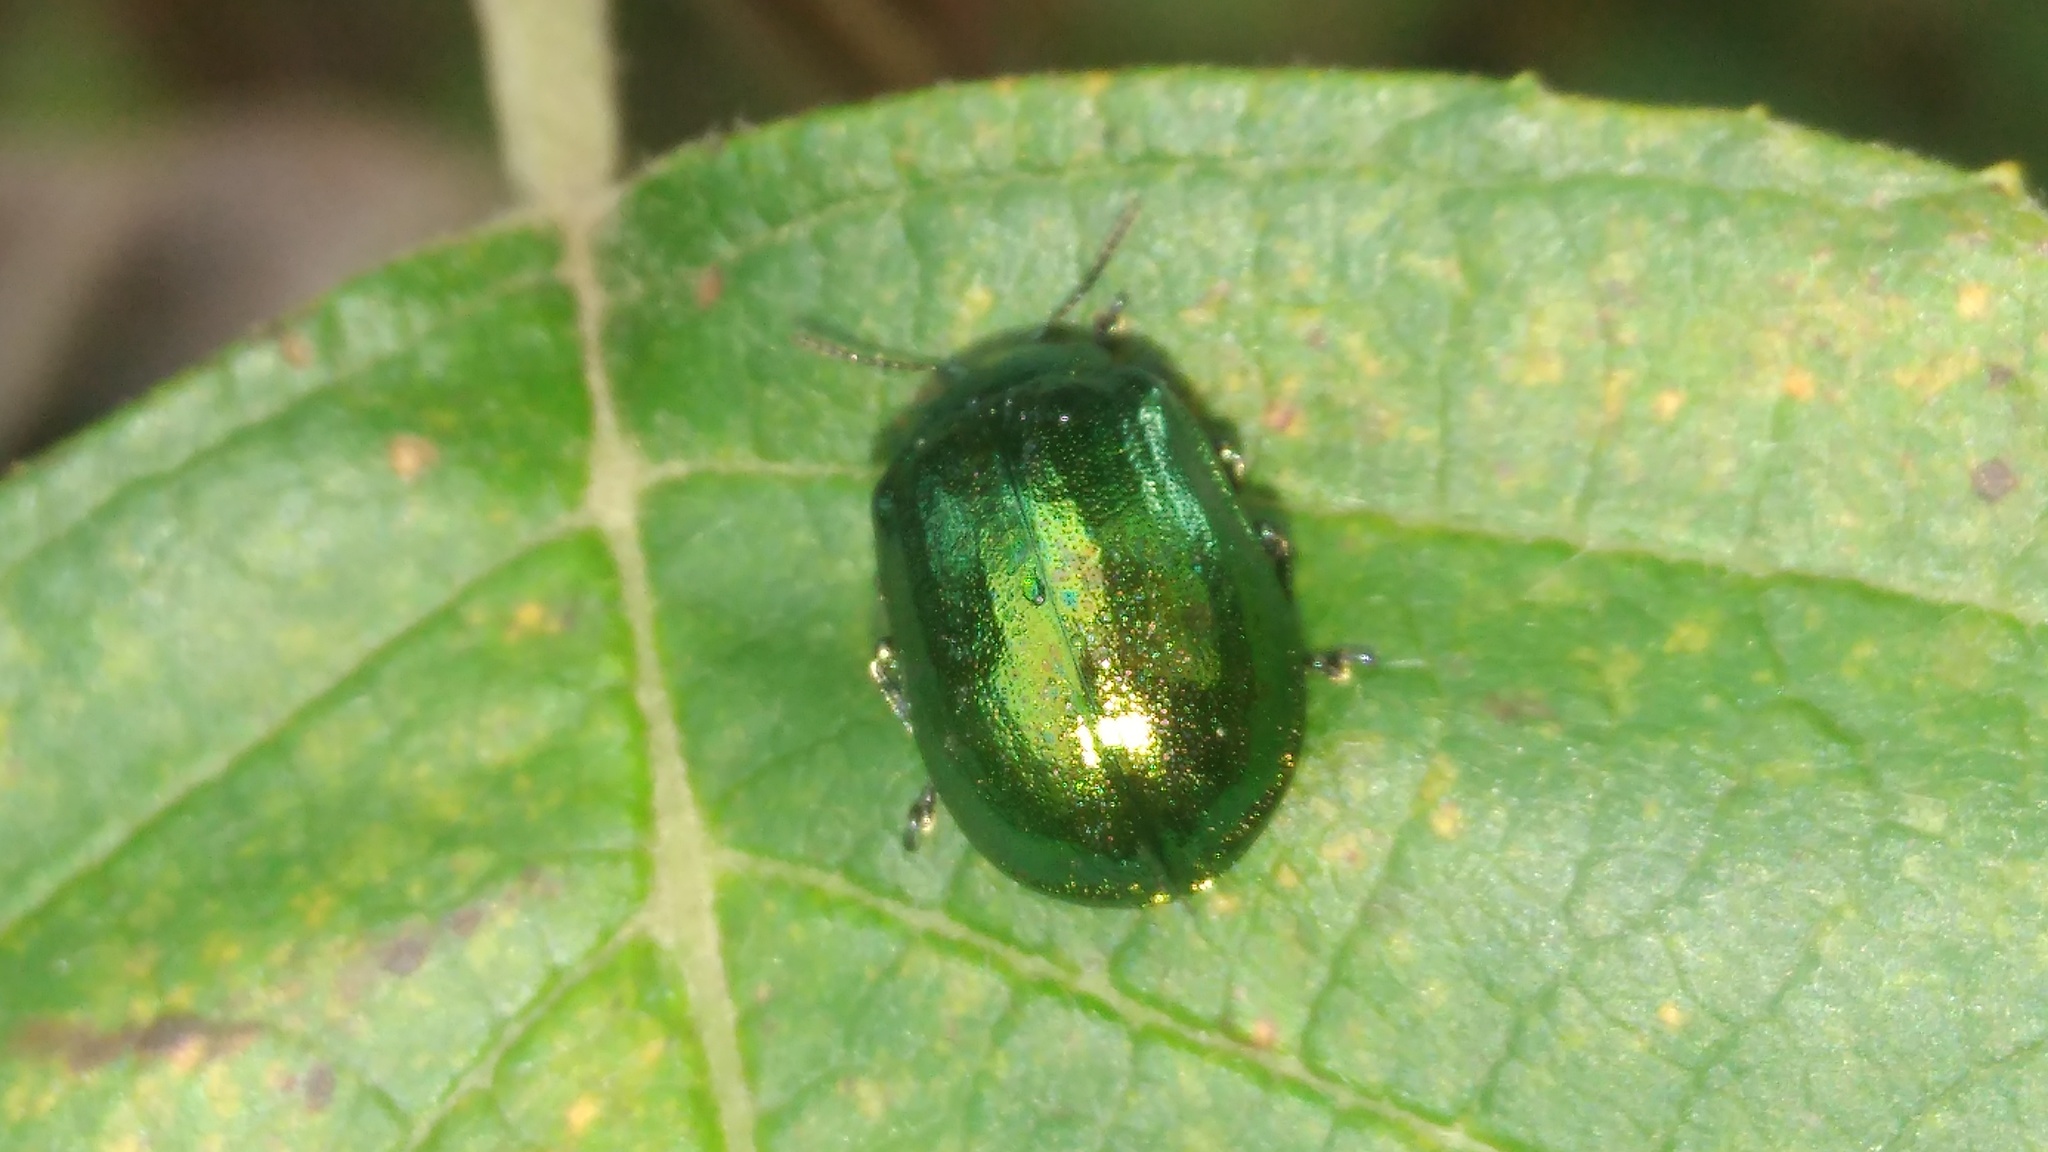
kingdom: Animalia
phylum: Arthropoda
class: Insecta
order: Coleoptera
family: Chrysomelidae
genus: Plagiosterna
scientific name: Plagiosterna aenea
